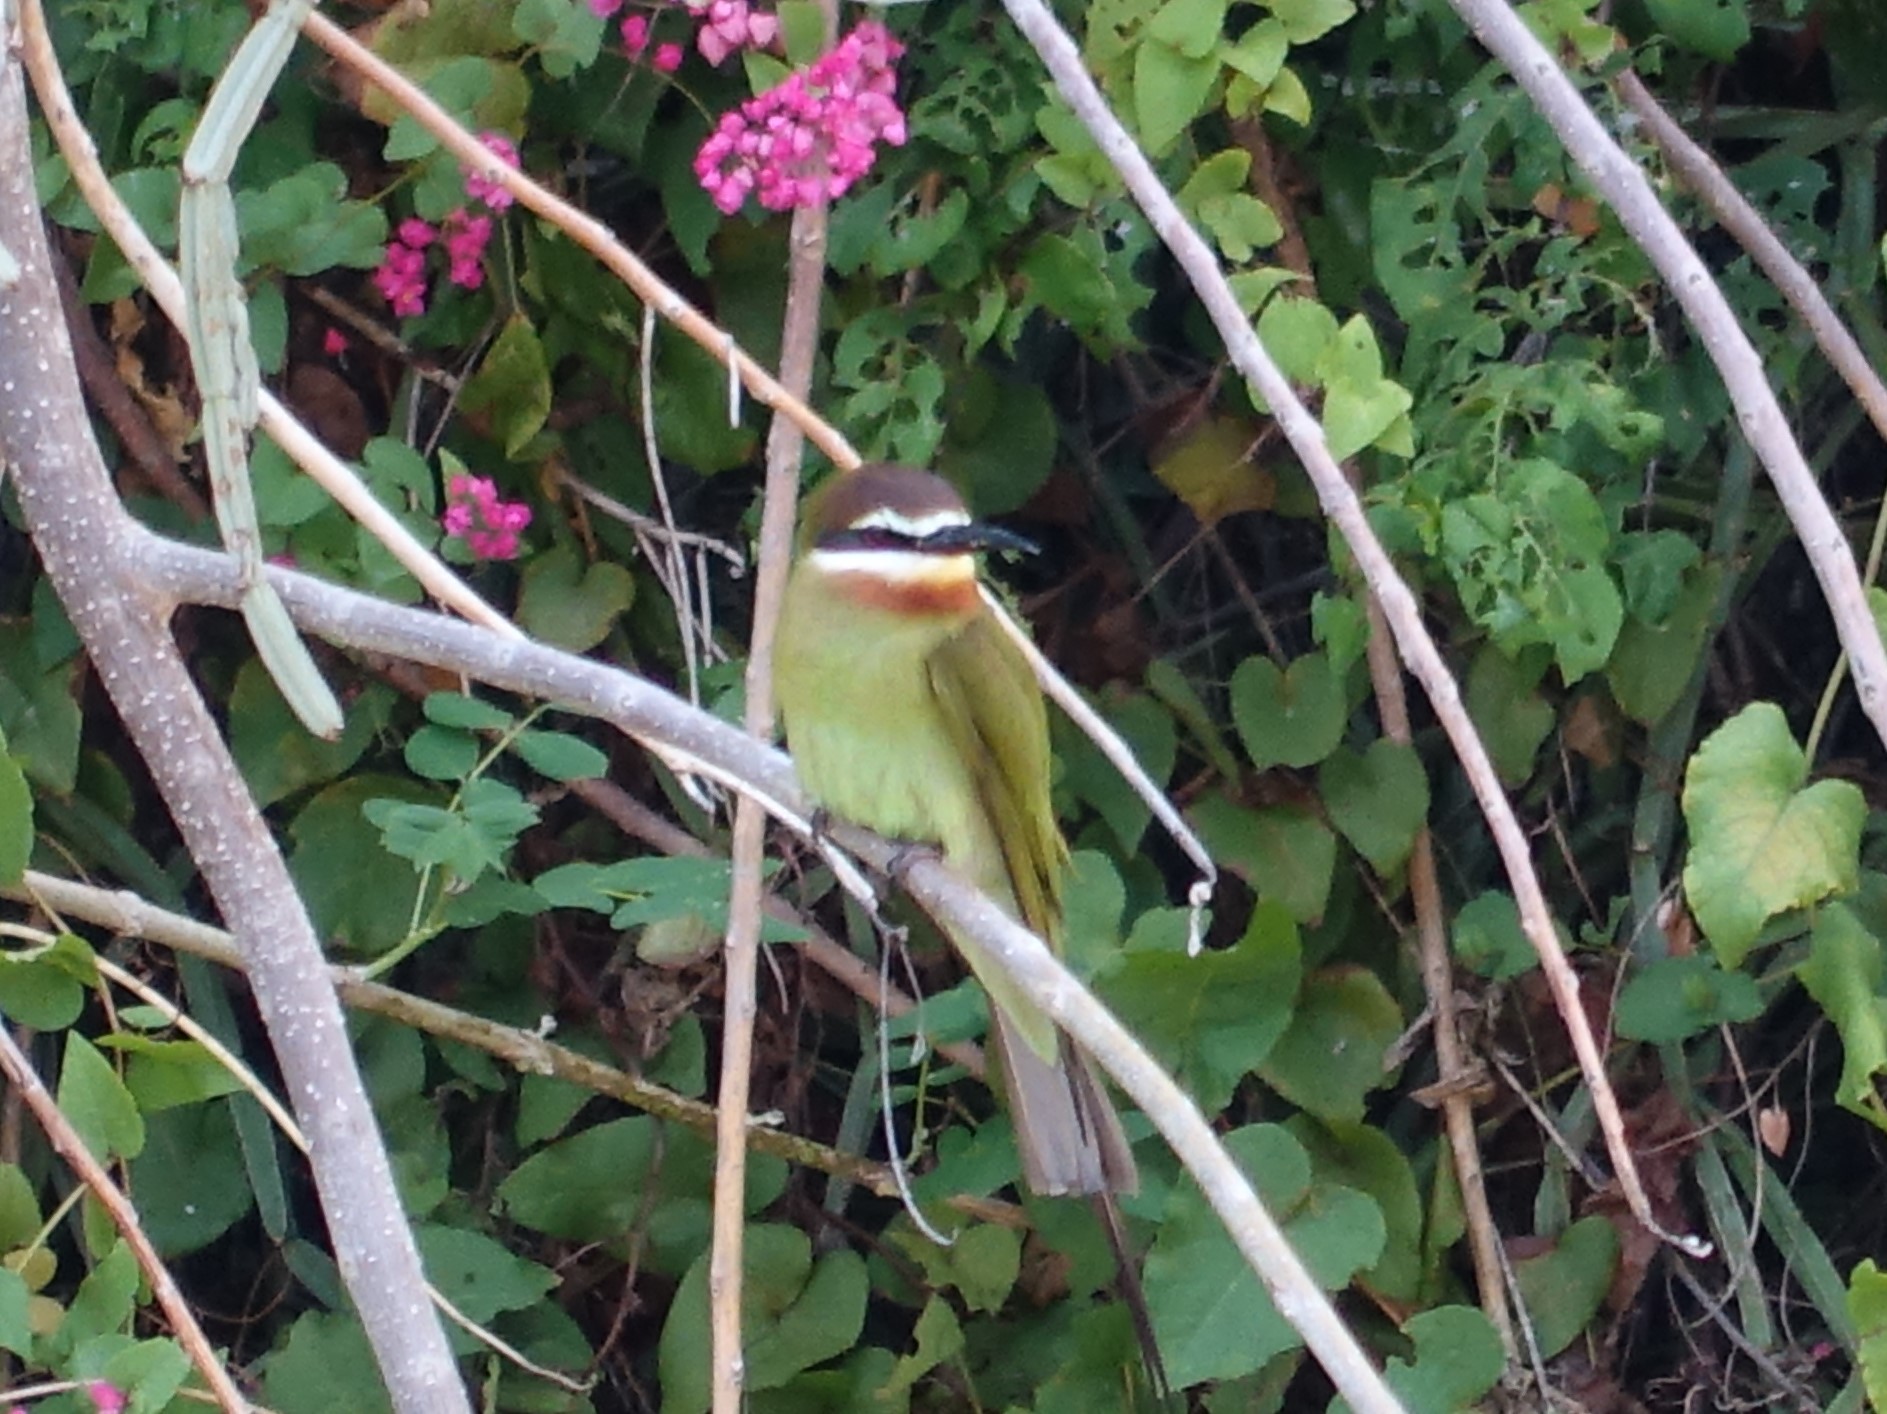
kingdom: Animalia
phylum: Chordata
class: Aves
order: Coraciiformes
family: Meropidae
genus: Merops
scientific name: Merops superciliosus
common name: Olive bee-eater
